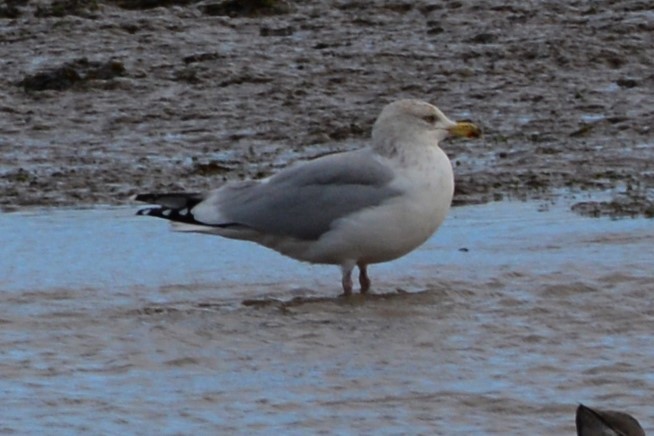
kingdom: Animalia
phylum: Chordata
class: Aves
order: Charadriiformes
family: Laridae
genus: Larus
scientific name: Larus argentatus
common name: Herring gull
